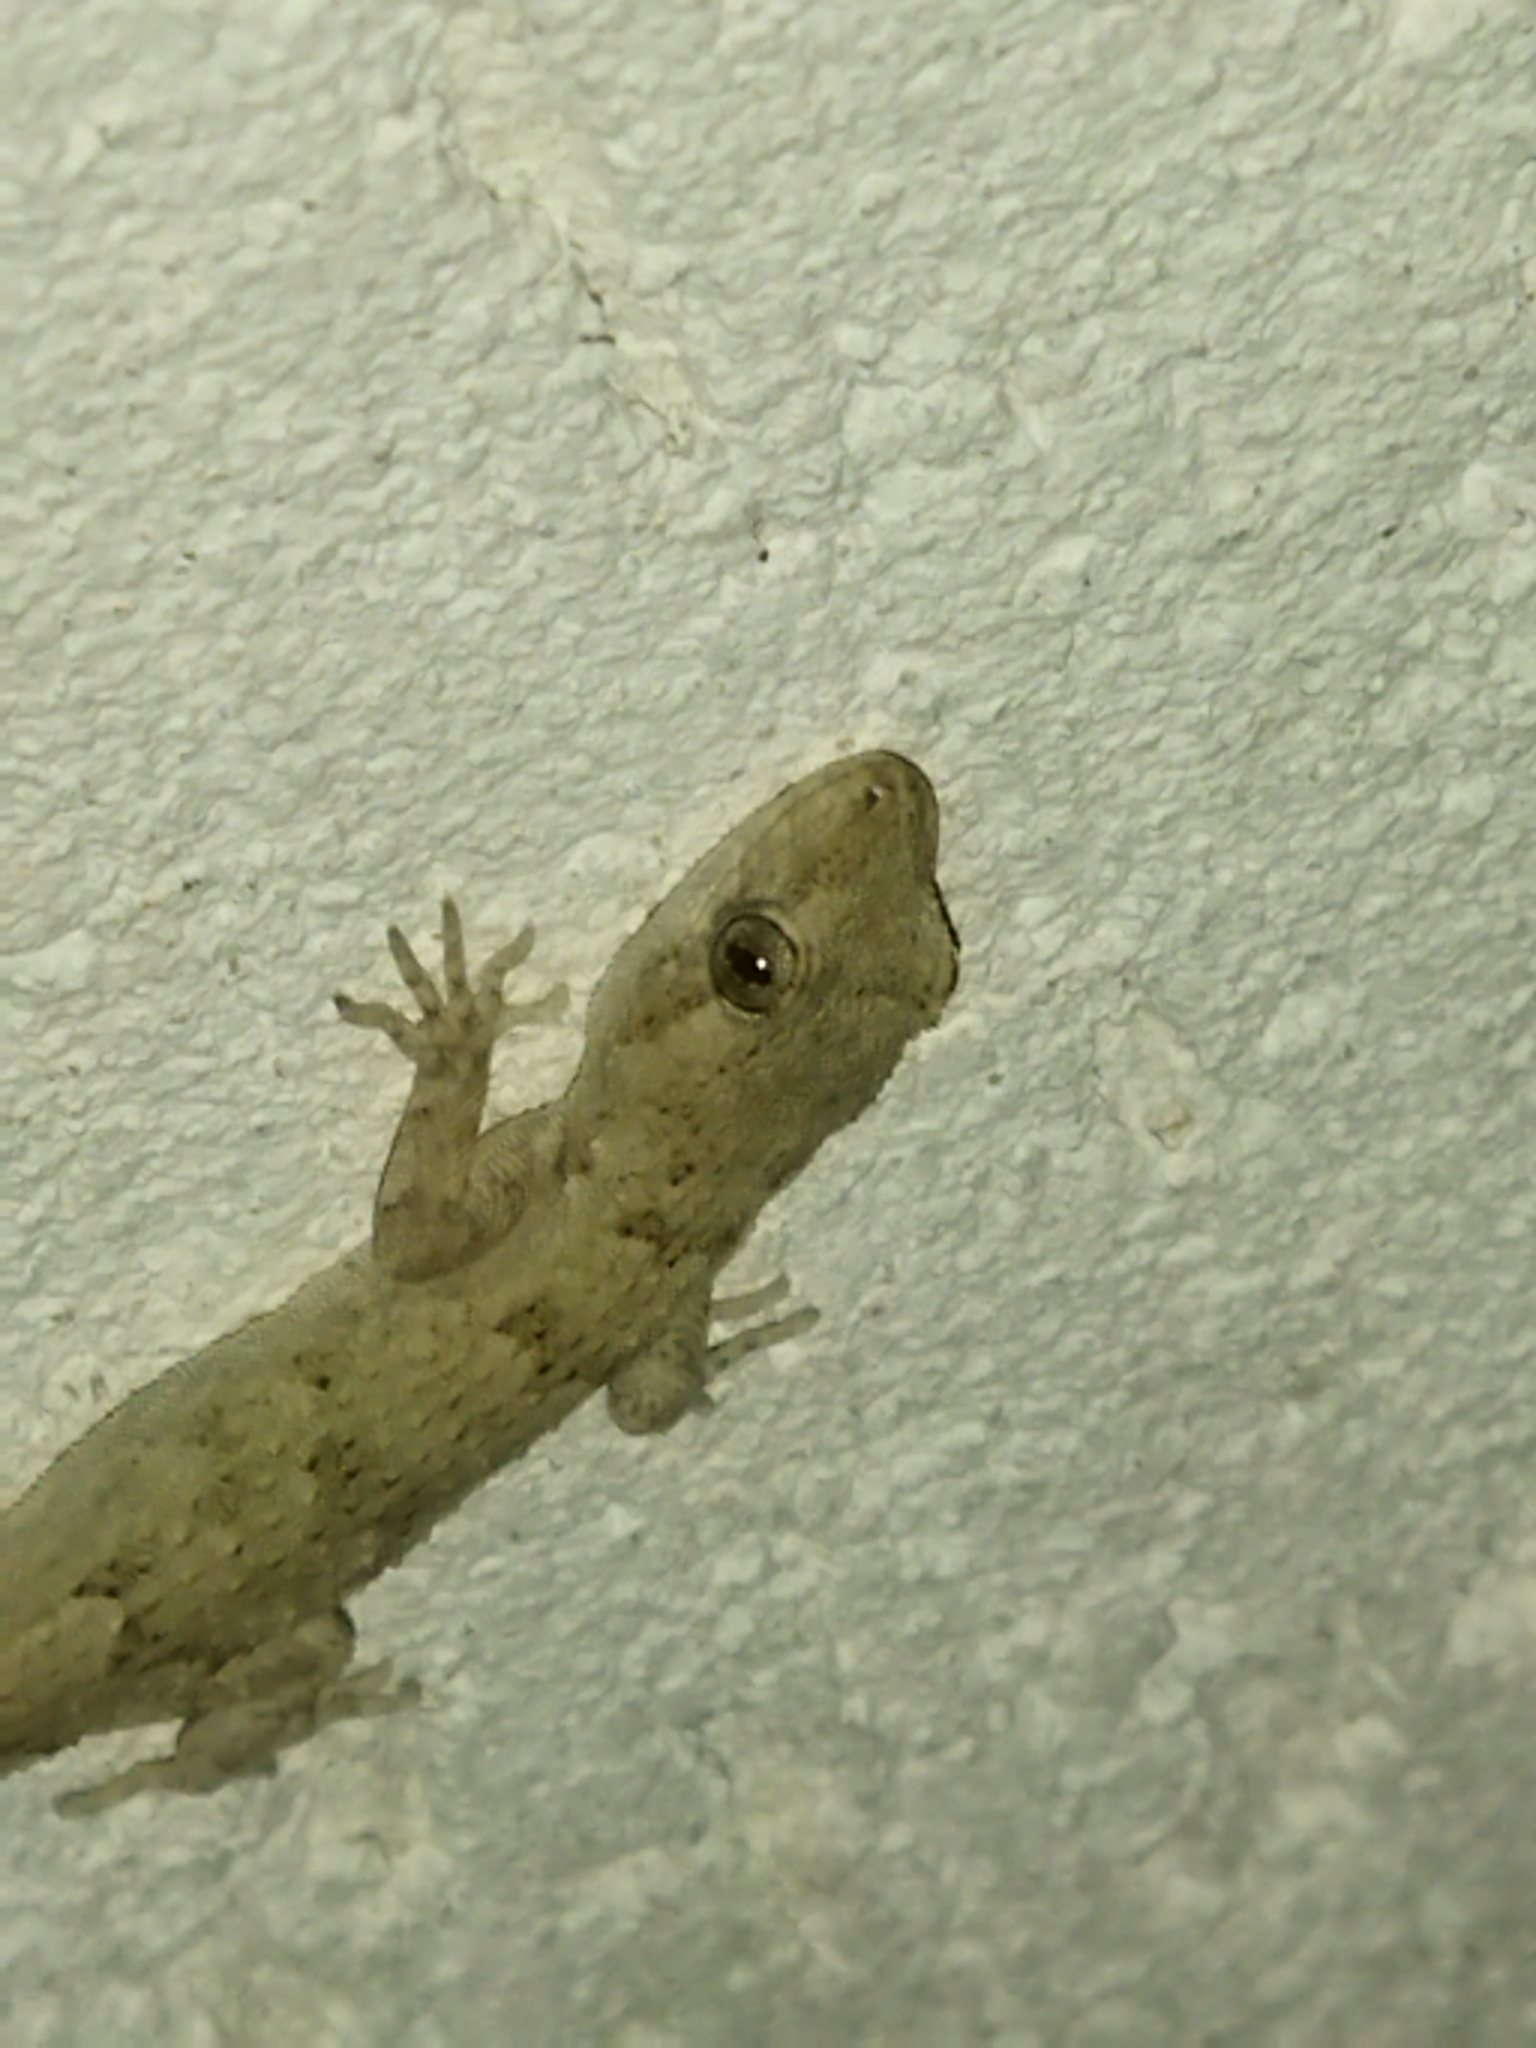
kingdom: Animalia
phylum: Chordata
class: Squamata
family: Gekkonidae
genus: Mediodactylus
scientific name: Mediodactylus kotschyi
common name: Kotschy's gecko
